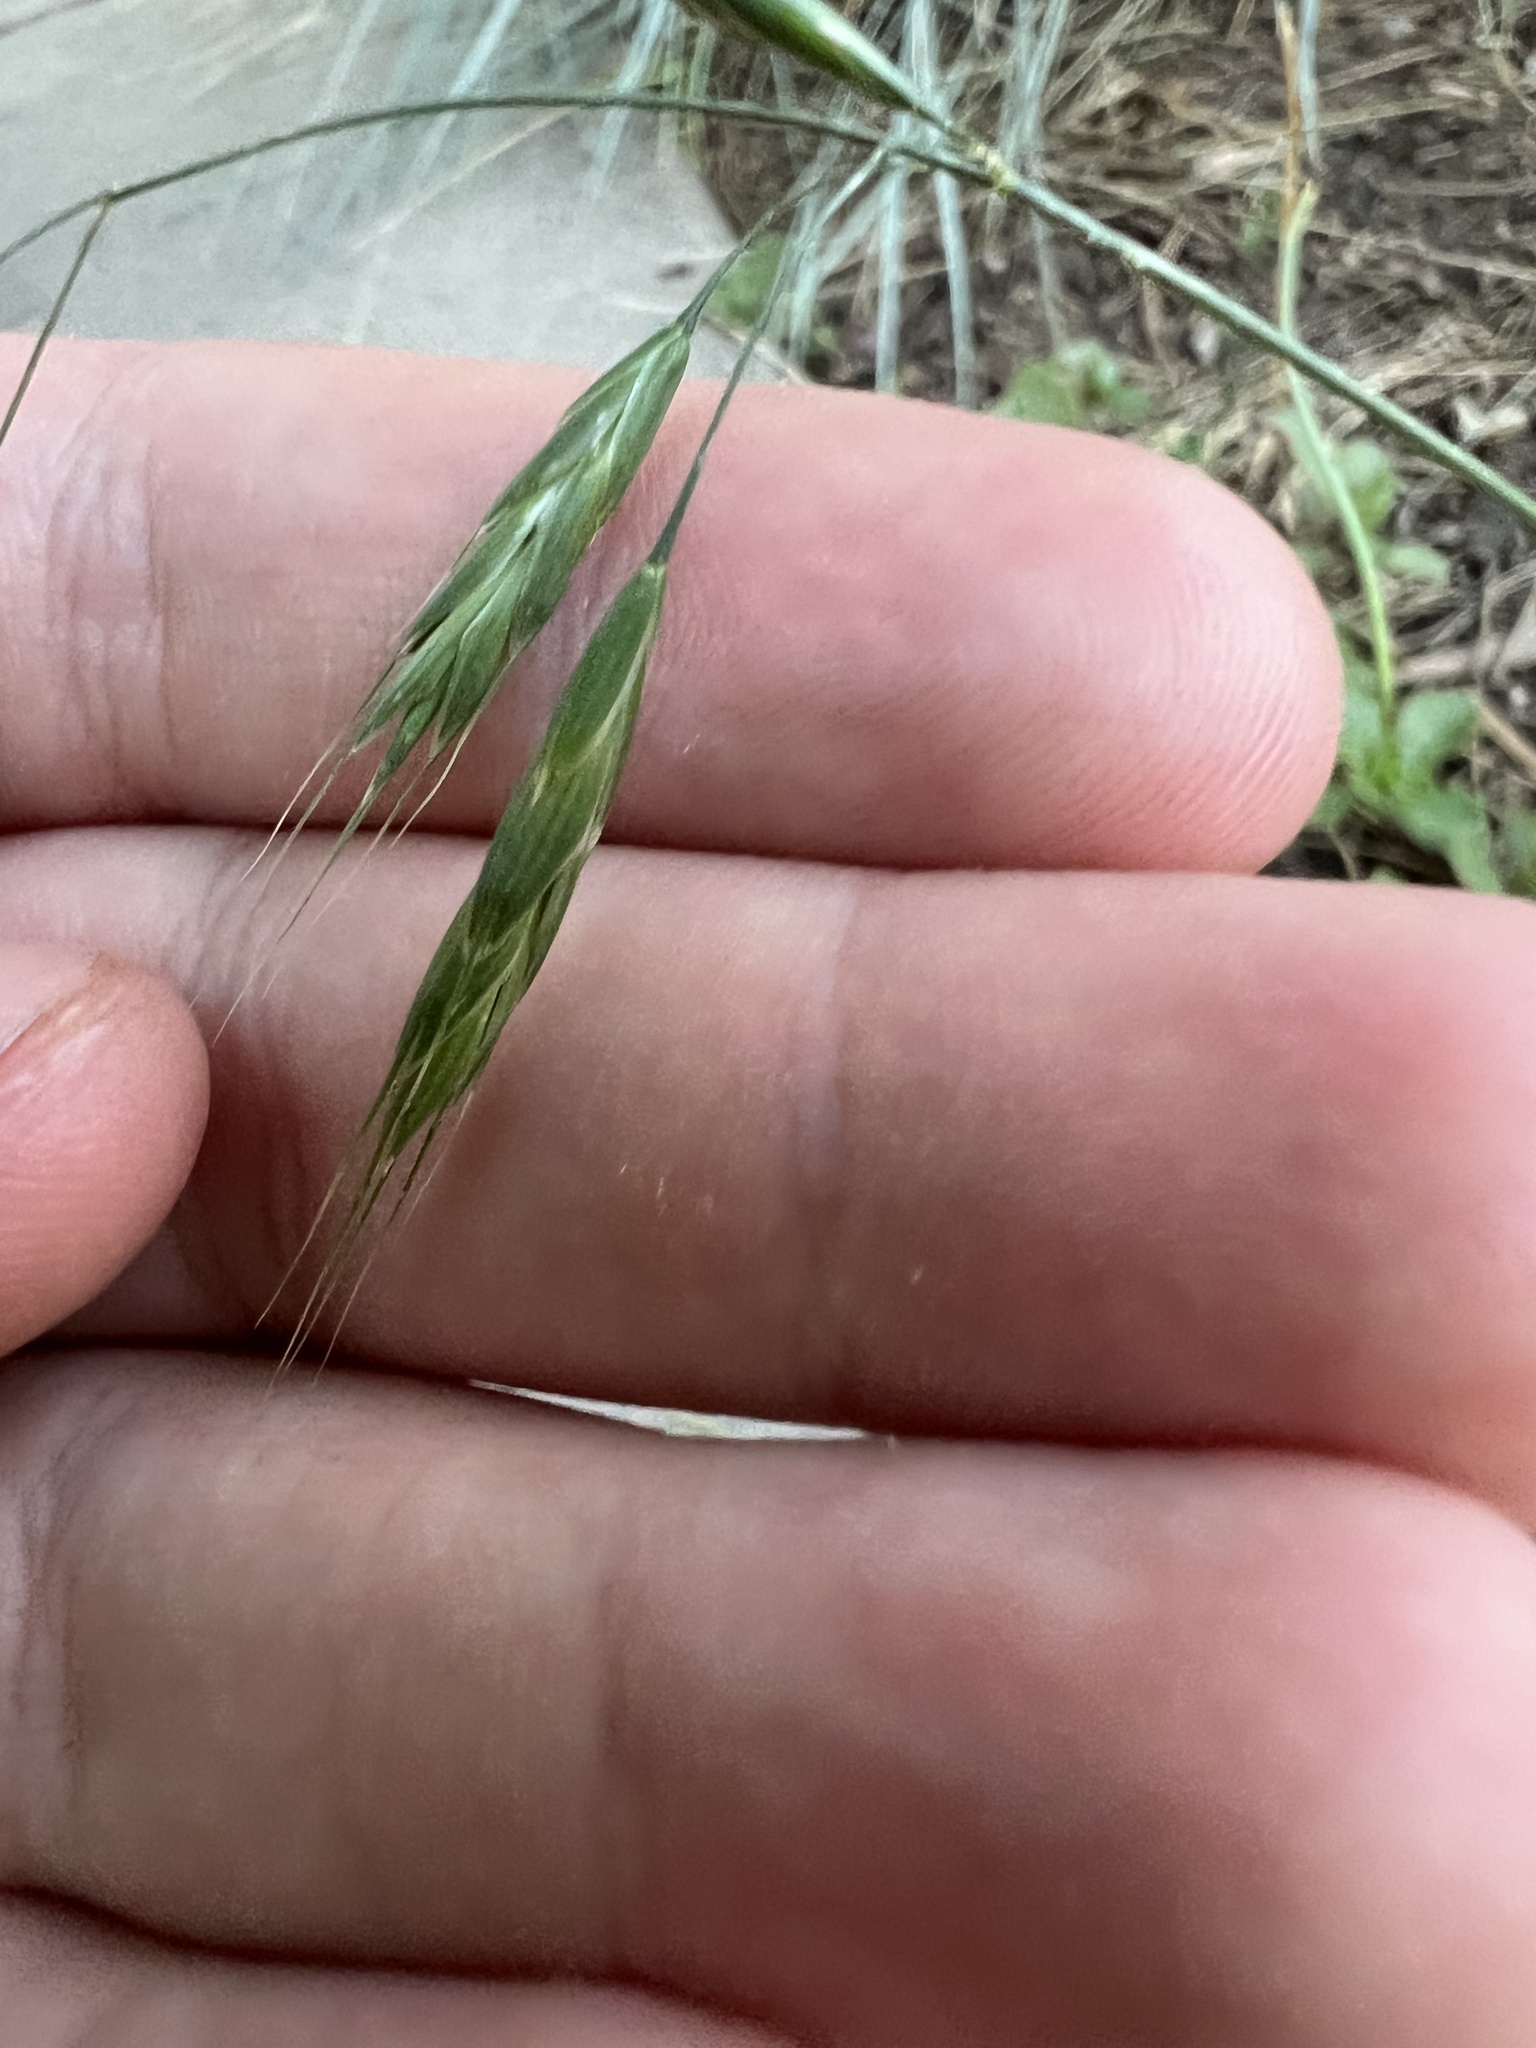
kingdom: Plantae
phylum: Tracheophyta
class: Liliopsida
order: Poales
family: Poaceae
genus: Bromus
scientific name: Bromus japonicus
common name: Japanese brome
